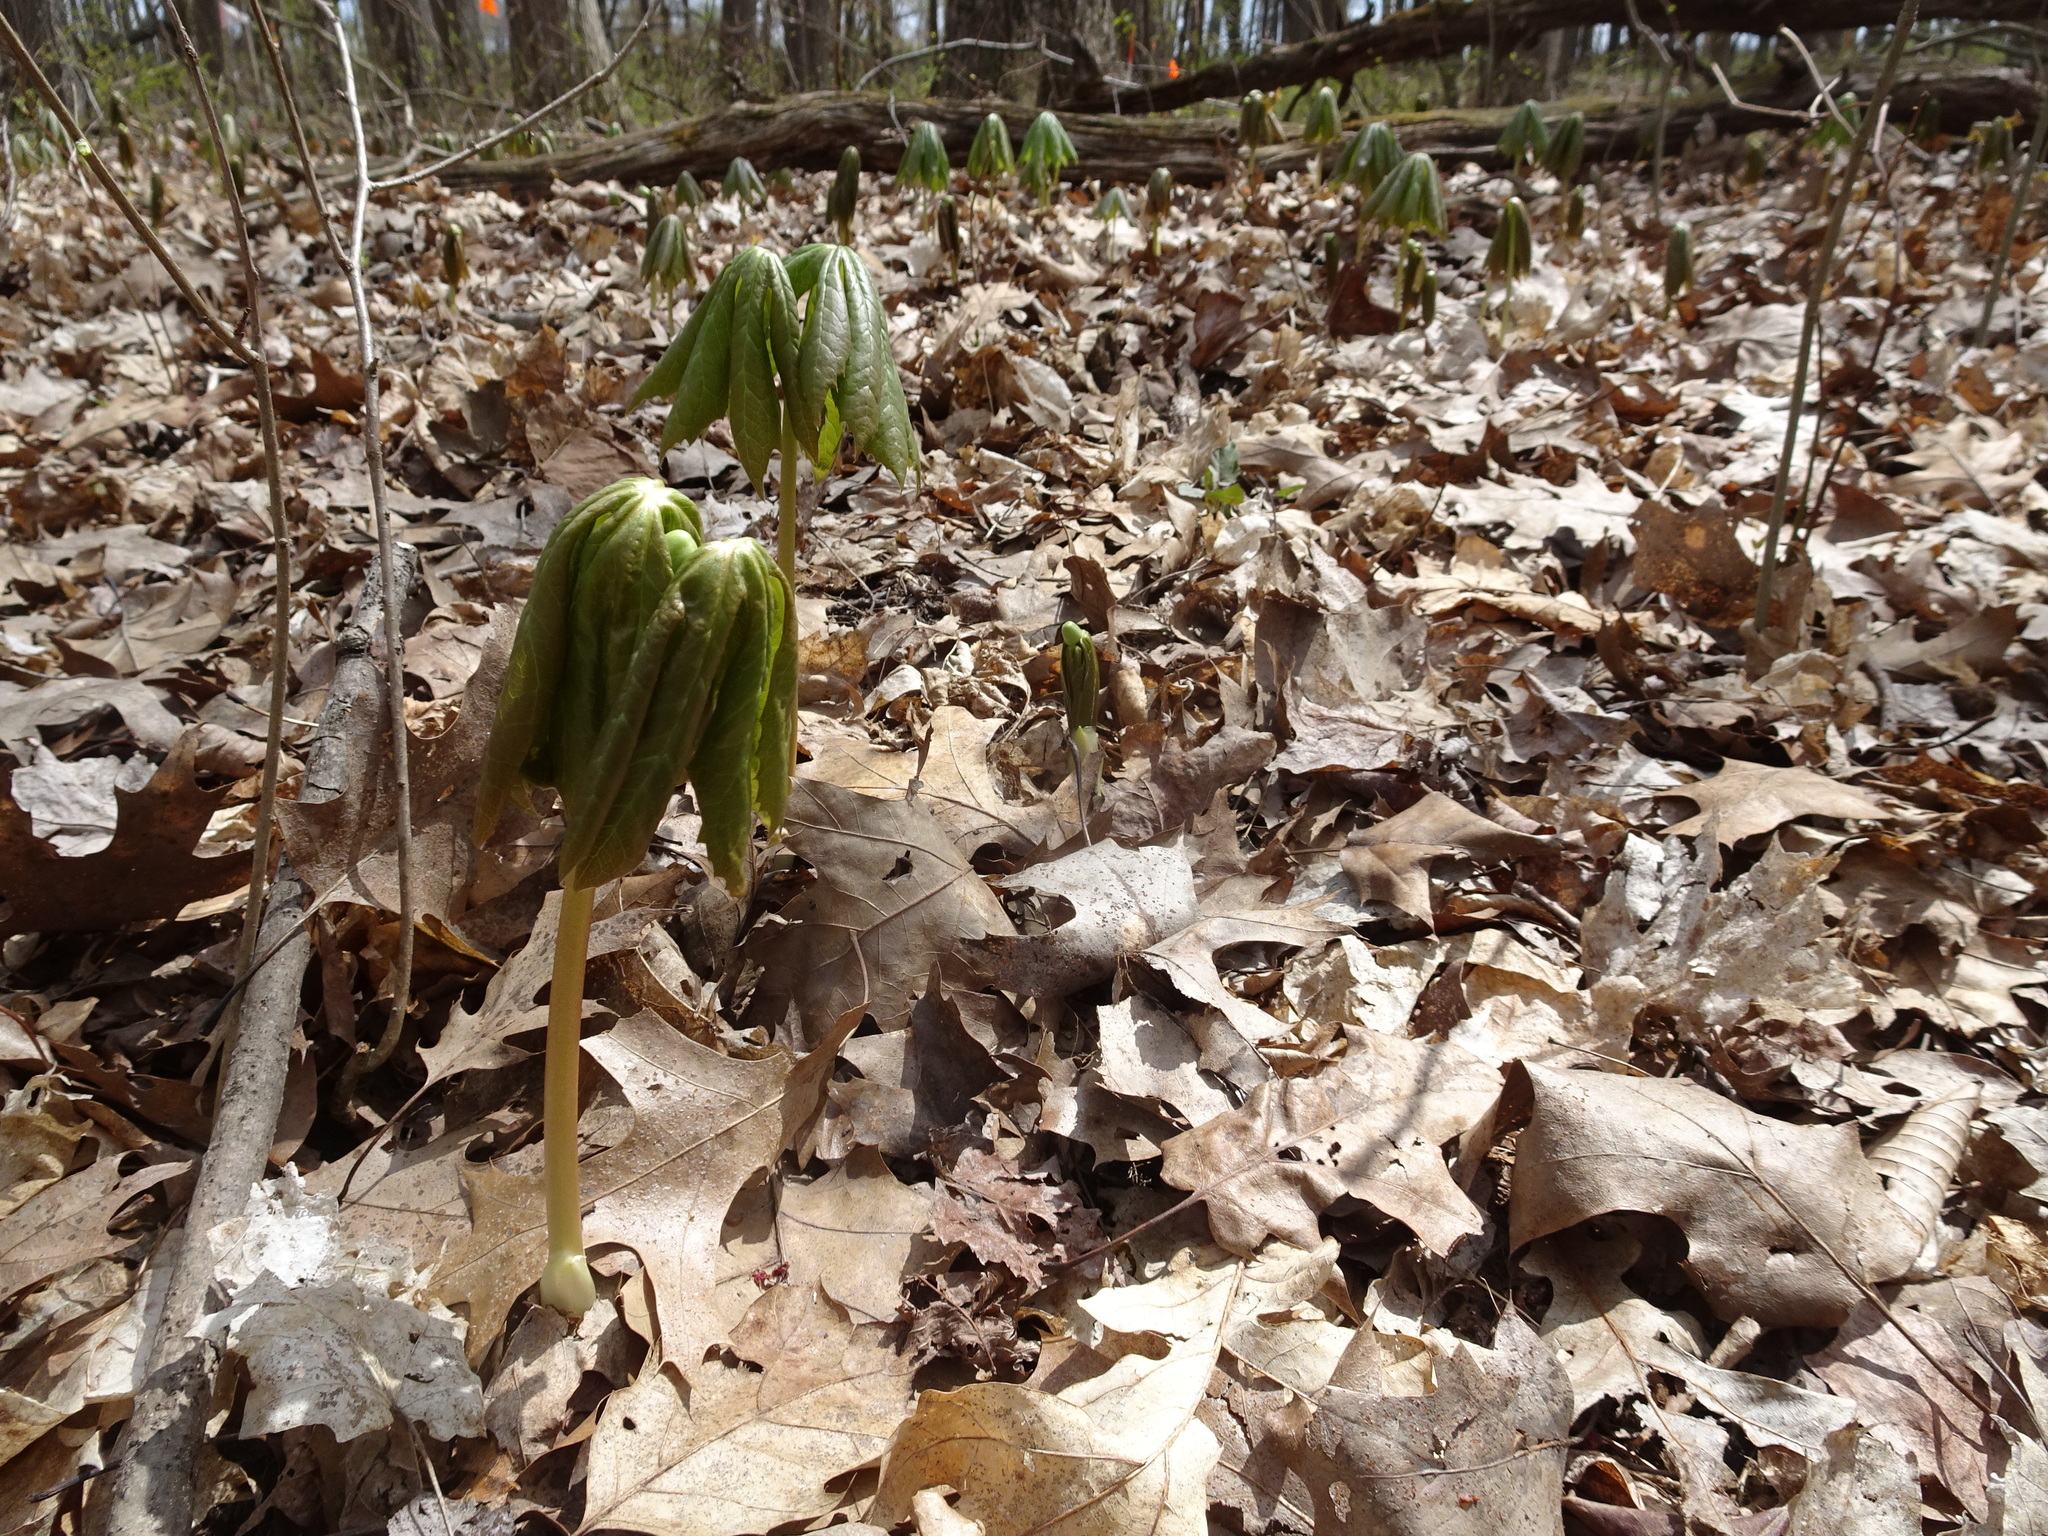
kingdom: Plantae
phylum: Tracheophyta
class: Magnoliopsida
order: Ranunculales
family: Berberidaceae
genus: Podophyllum
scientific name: Podophyllum peltatum
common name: Wild mandrake
